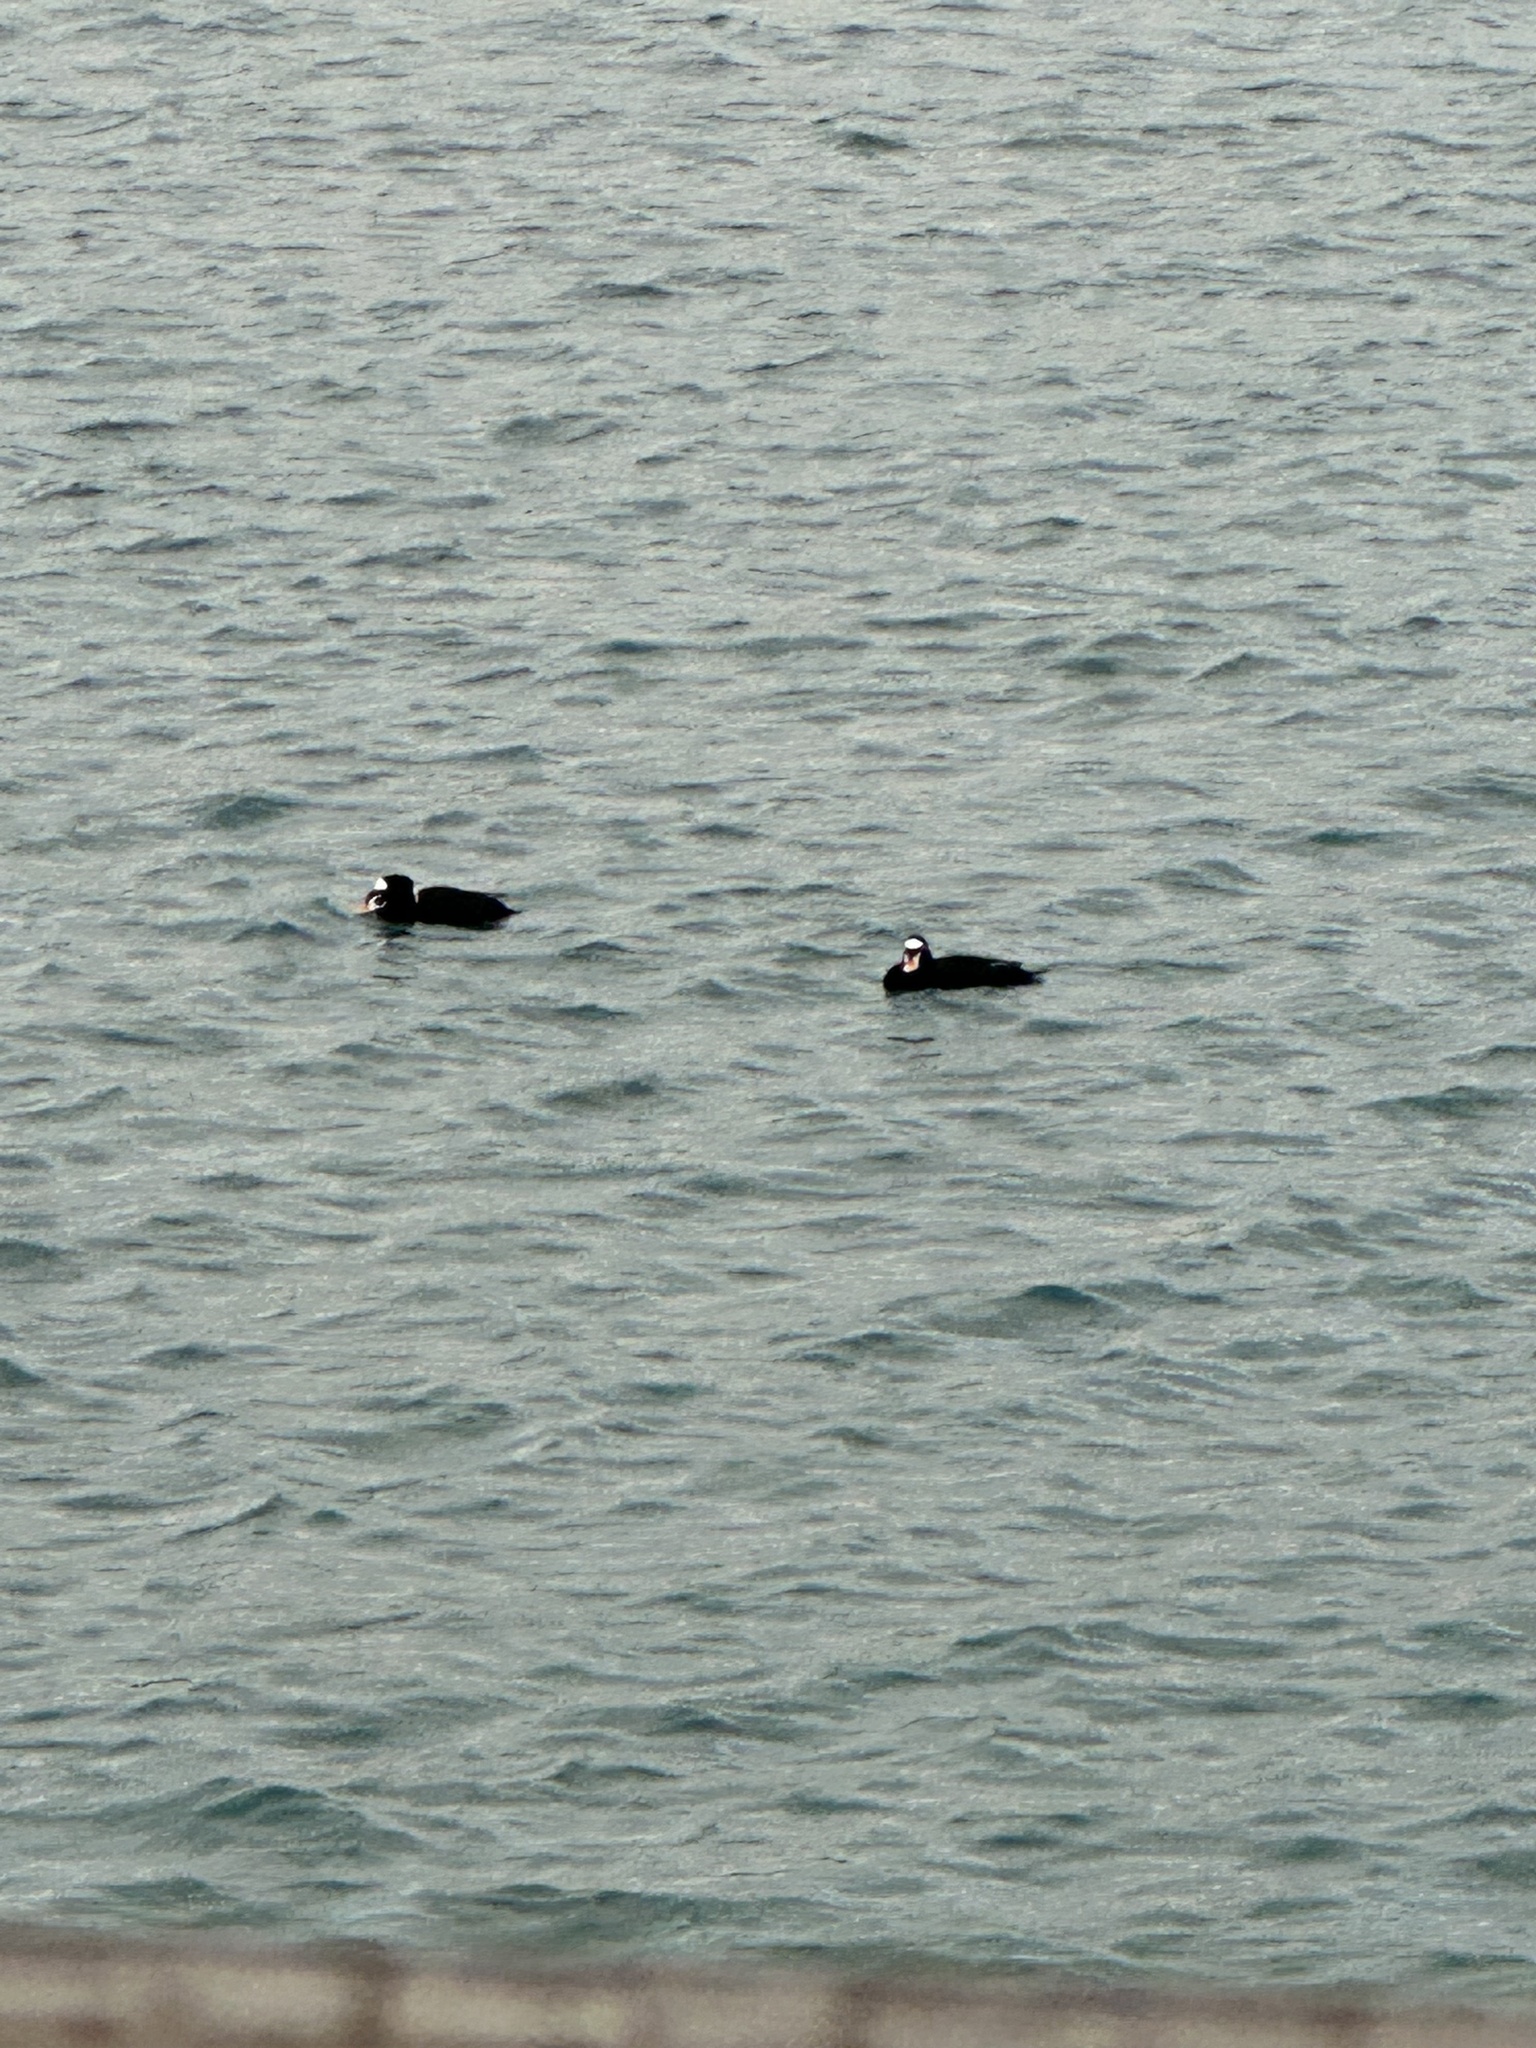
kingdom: Animalia
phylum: Chordata
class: Aves
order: Anseriformes
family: Anatidae
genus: Melanitta
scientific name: Melanitta perspicillata
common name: Surf scoter
